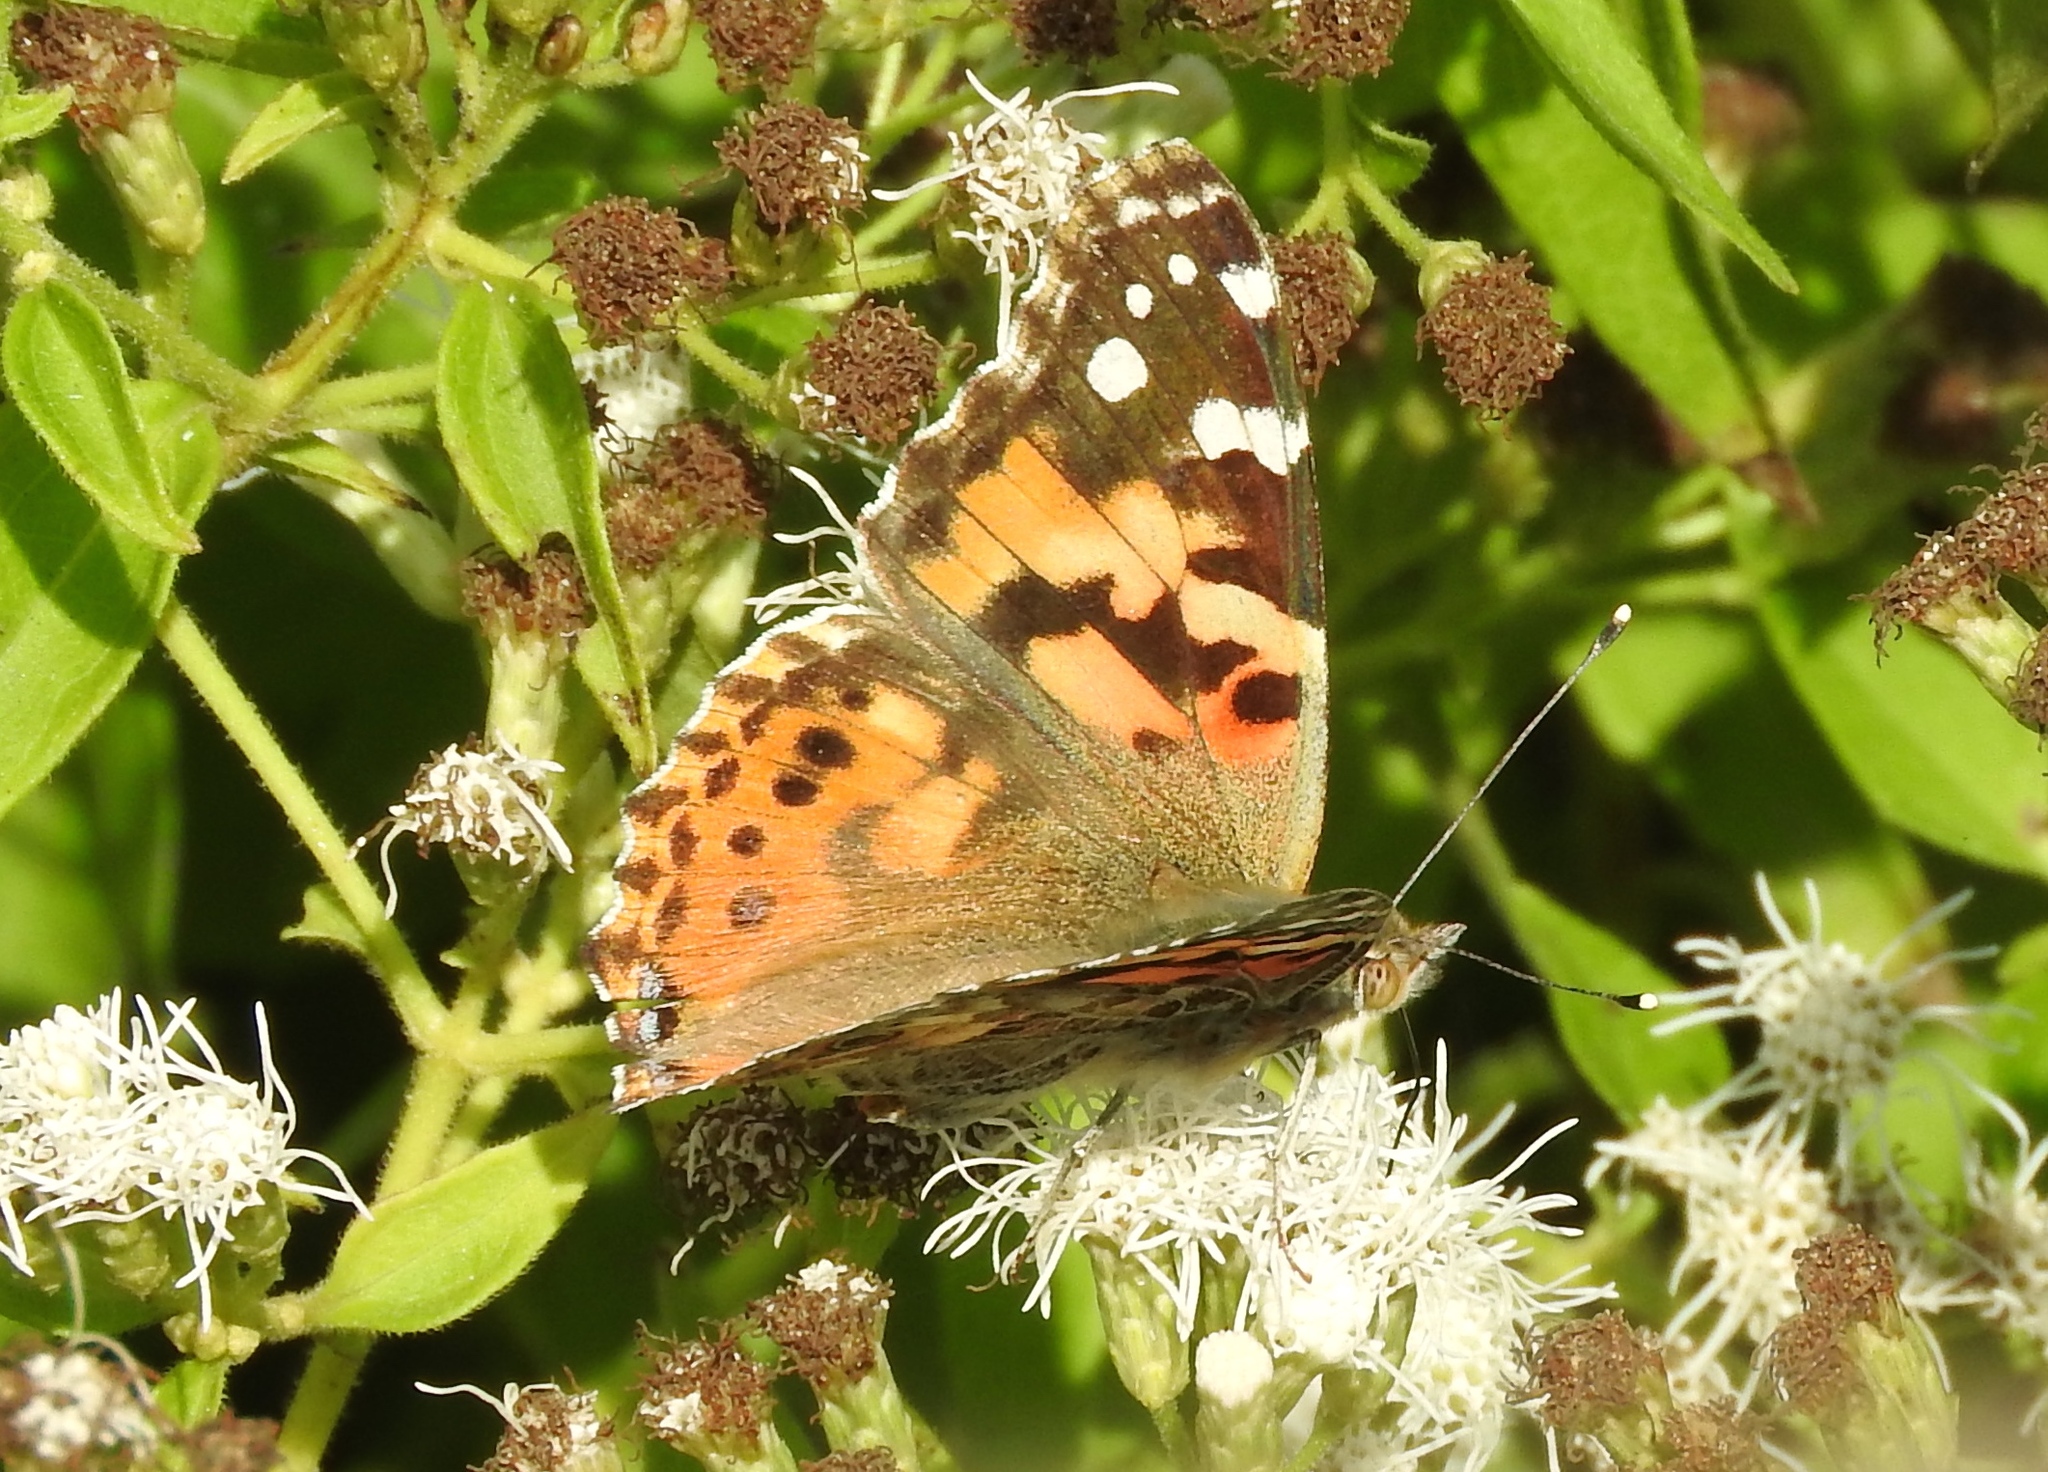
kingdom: Animalia
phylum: Arthropoda
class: Insecta
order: Lepidoptera
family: Nymphalidae
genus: Vanessa
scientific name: Vanessa cardui
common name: Painted lady
